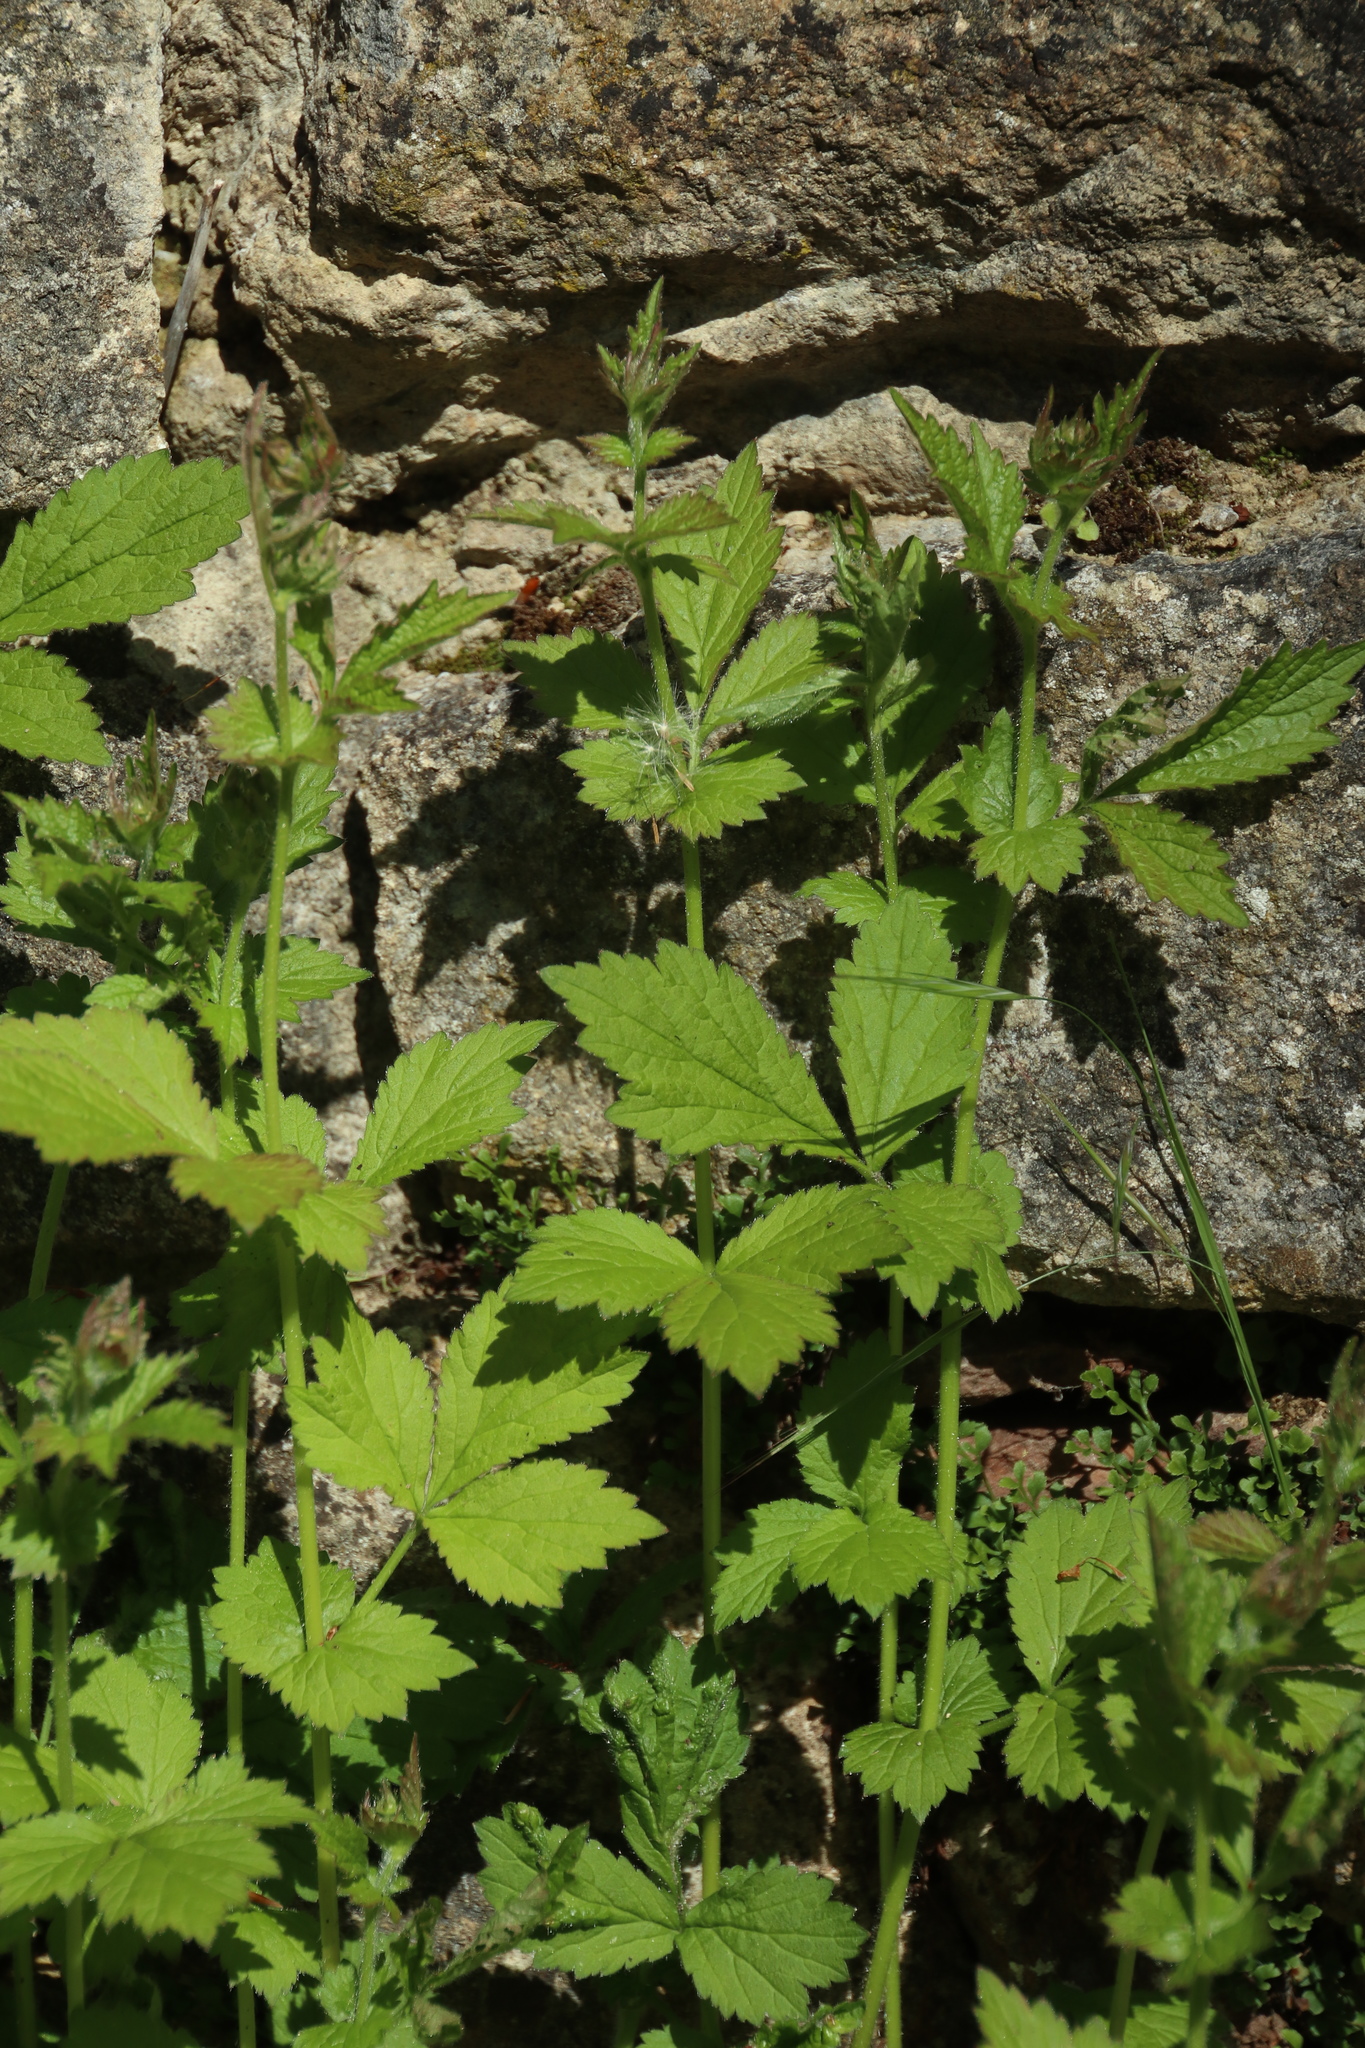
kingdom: Plantae
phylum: Tracheophyta
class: Magnoliopsida
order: Rosales
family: Rosaceae
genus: Geum
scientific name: Geum urbanum
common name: Wood avens
